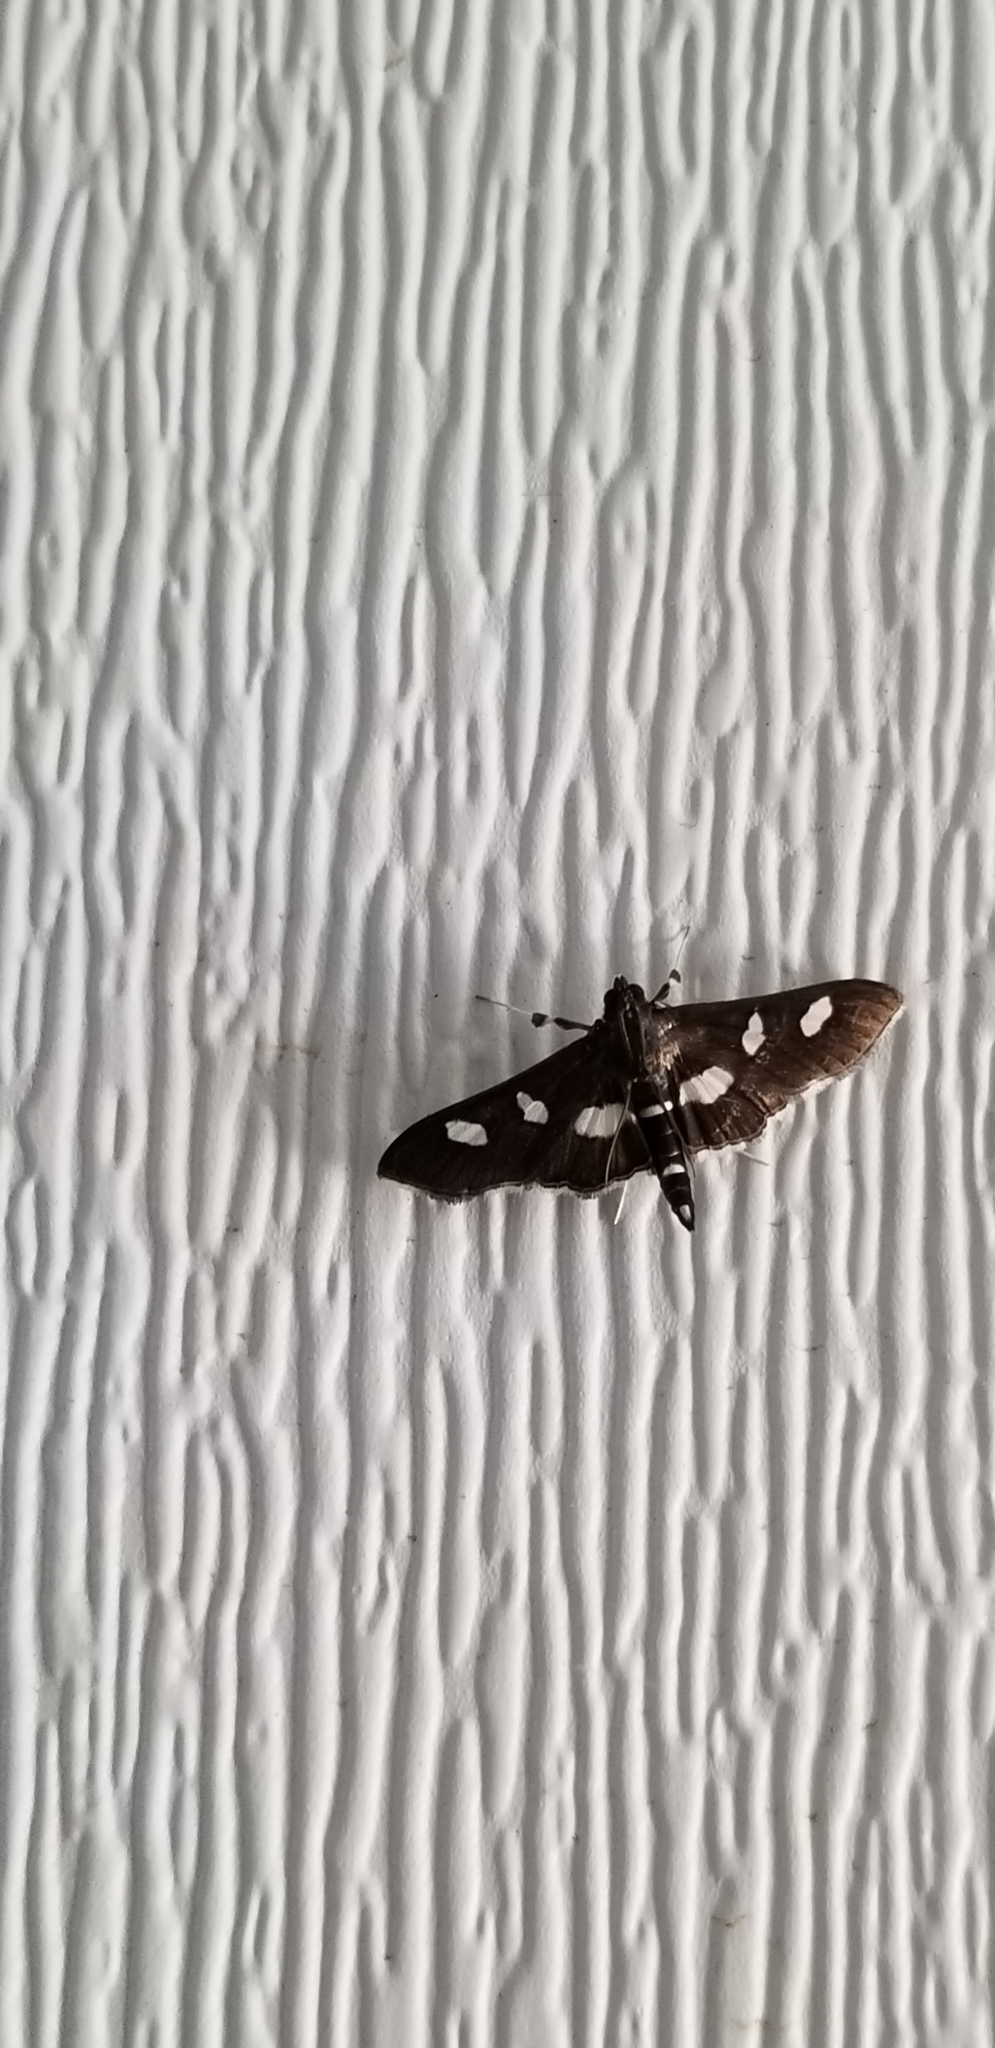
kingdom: Animalia
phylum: Arthropoda
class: Insecta
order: Lepidoptera
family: Crambidae
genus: Desmia
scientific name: Desmia
